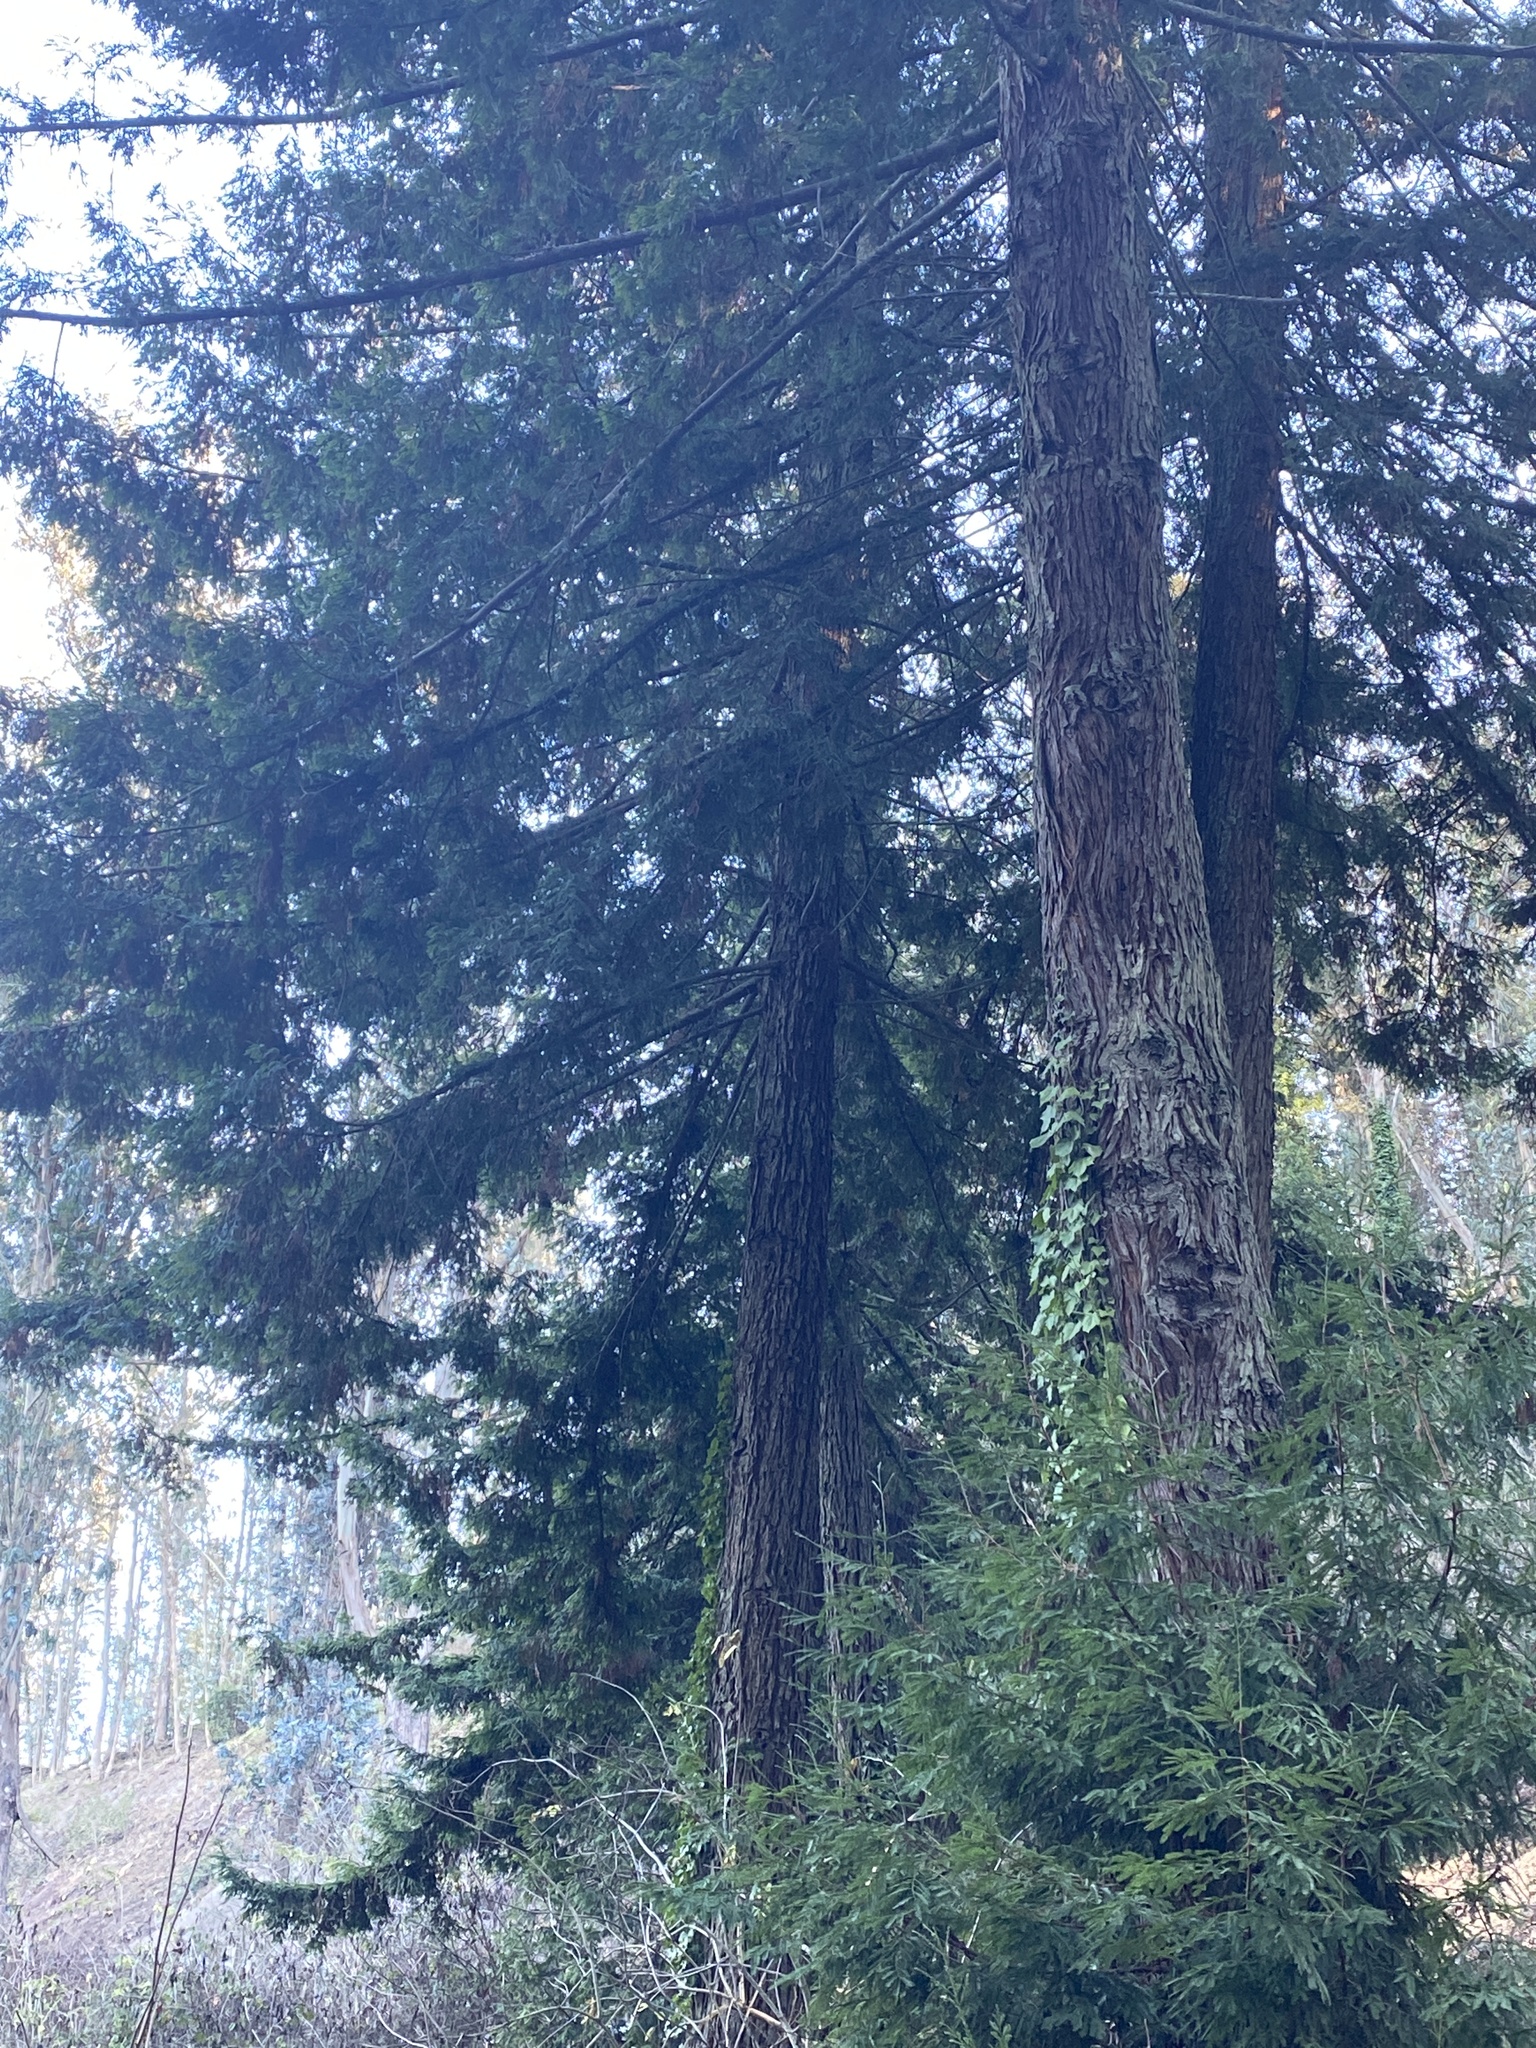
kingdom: Plantae
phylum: Tracheophyta
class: Pinopsida
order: Pinales
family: Cupressaceae
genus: Calocedrus
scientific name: Calocedrus decurrens
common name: Californian incense-cedar
